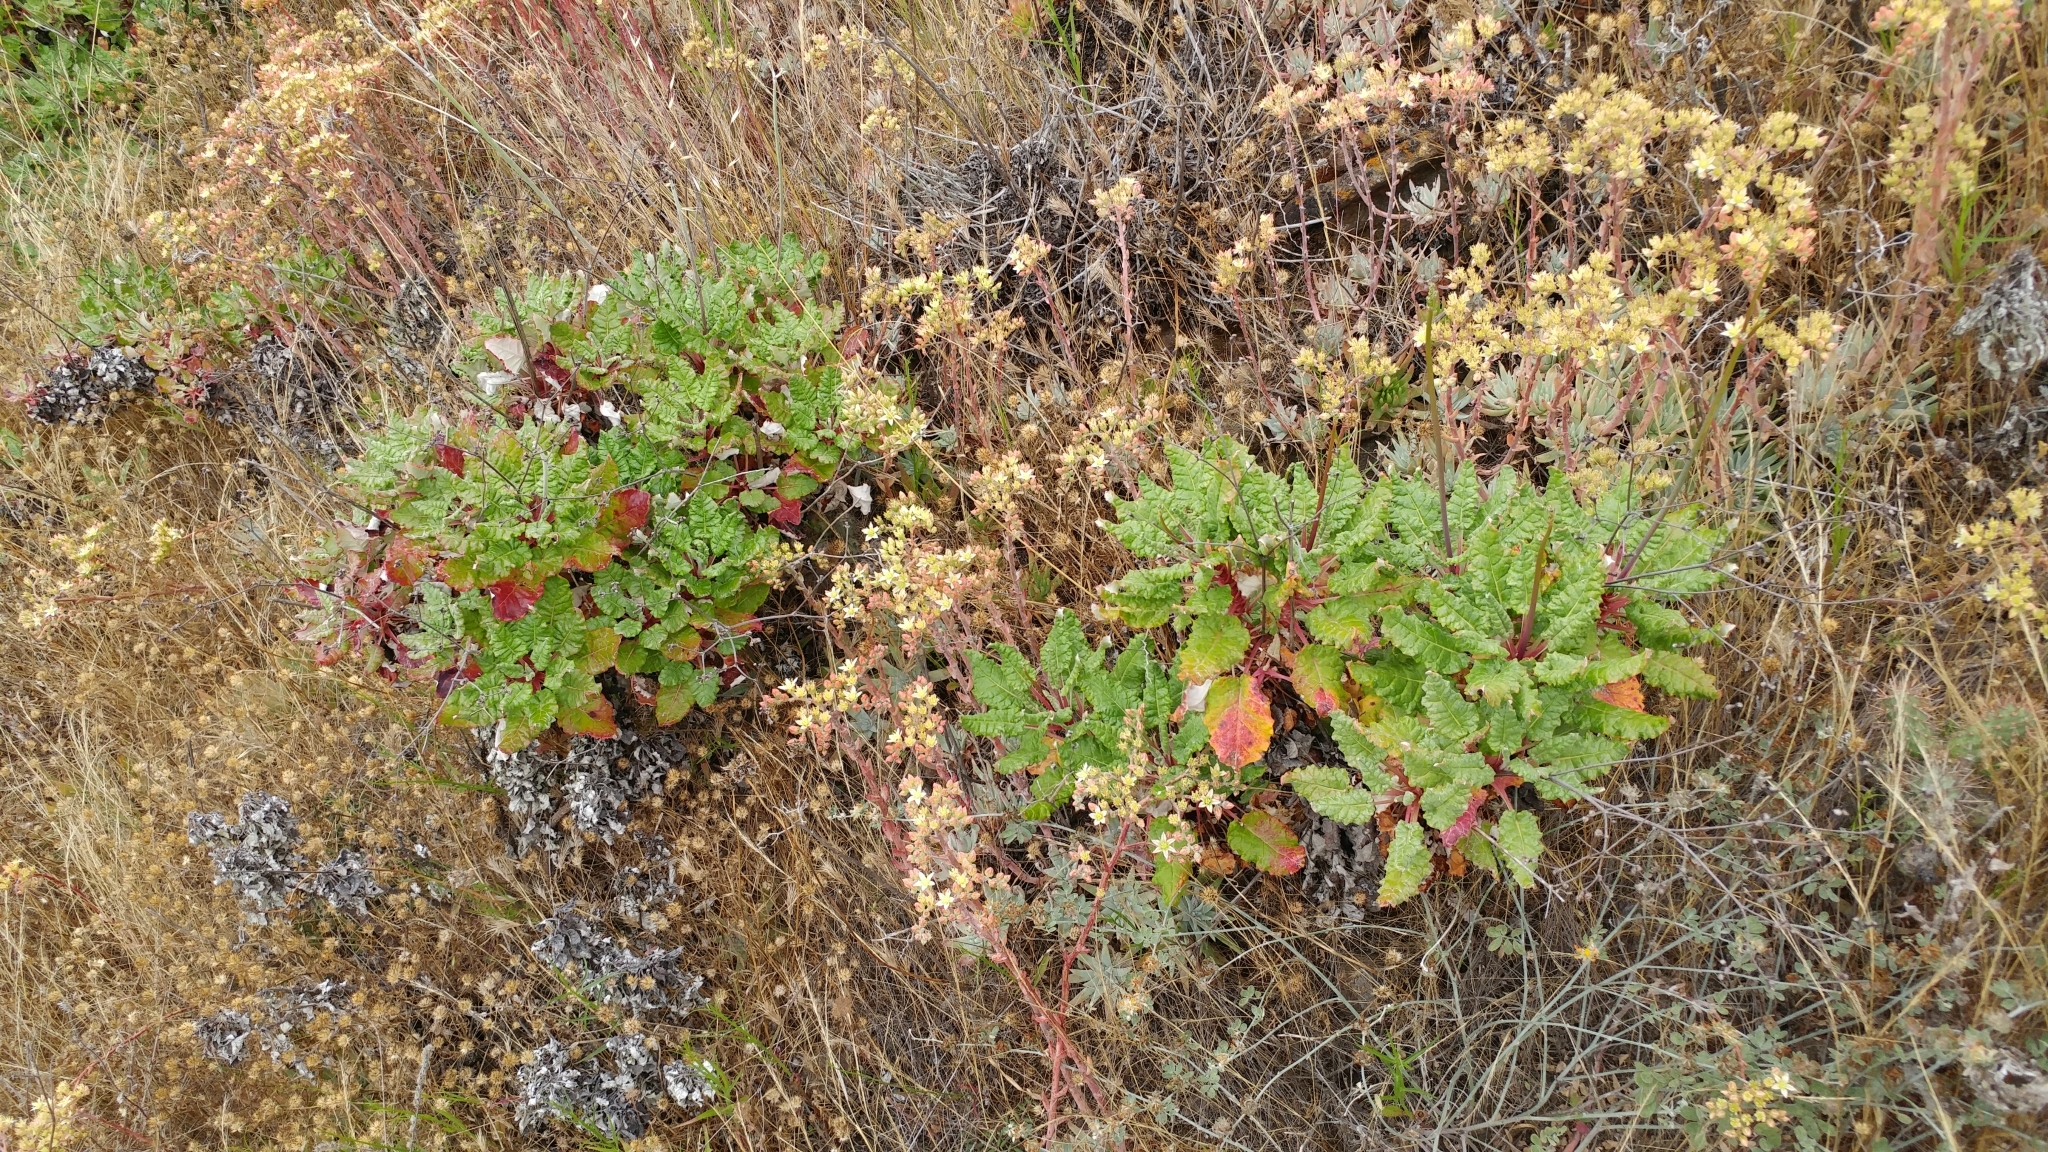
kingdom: Plantae
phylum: Tracheophyta
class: Magnoliopsida
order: Caryophyllales
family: Polygonaceae
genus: Eriogonum
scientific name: Eriogonum grande
